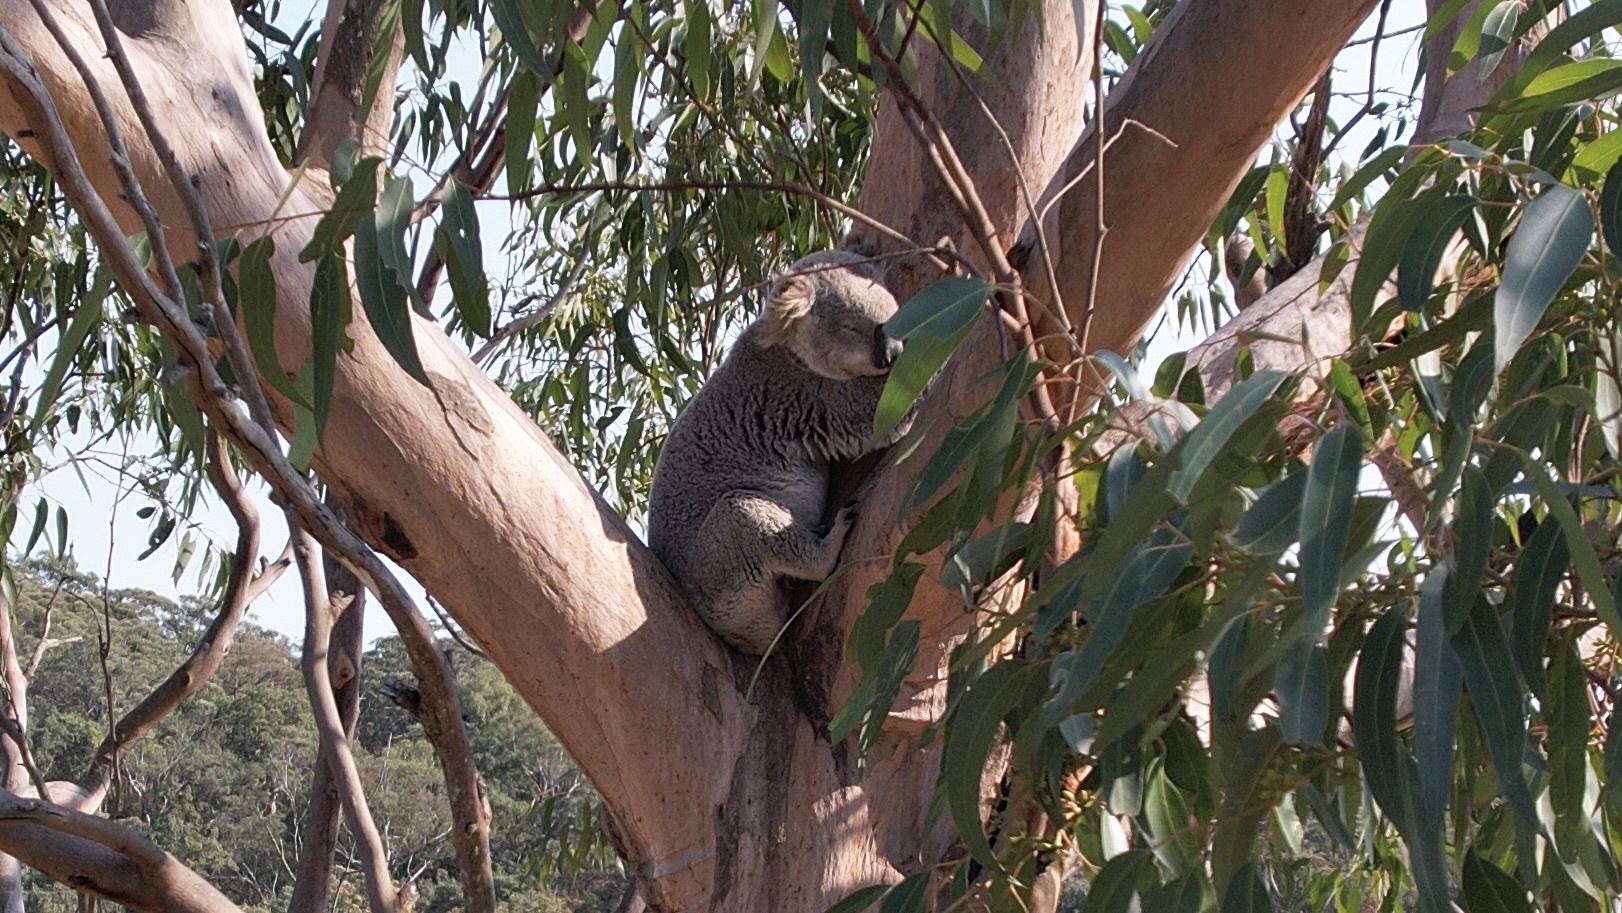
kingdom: Animalia
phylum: Chordata
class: Mammalia
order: Diprotodontia
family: Phascolarctidae
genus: Phascolarctos
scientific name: Phascolarctos cinereus
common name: Koala
